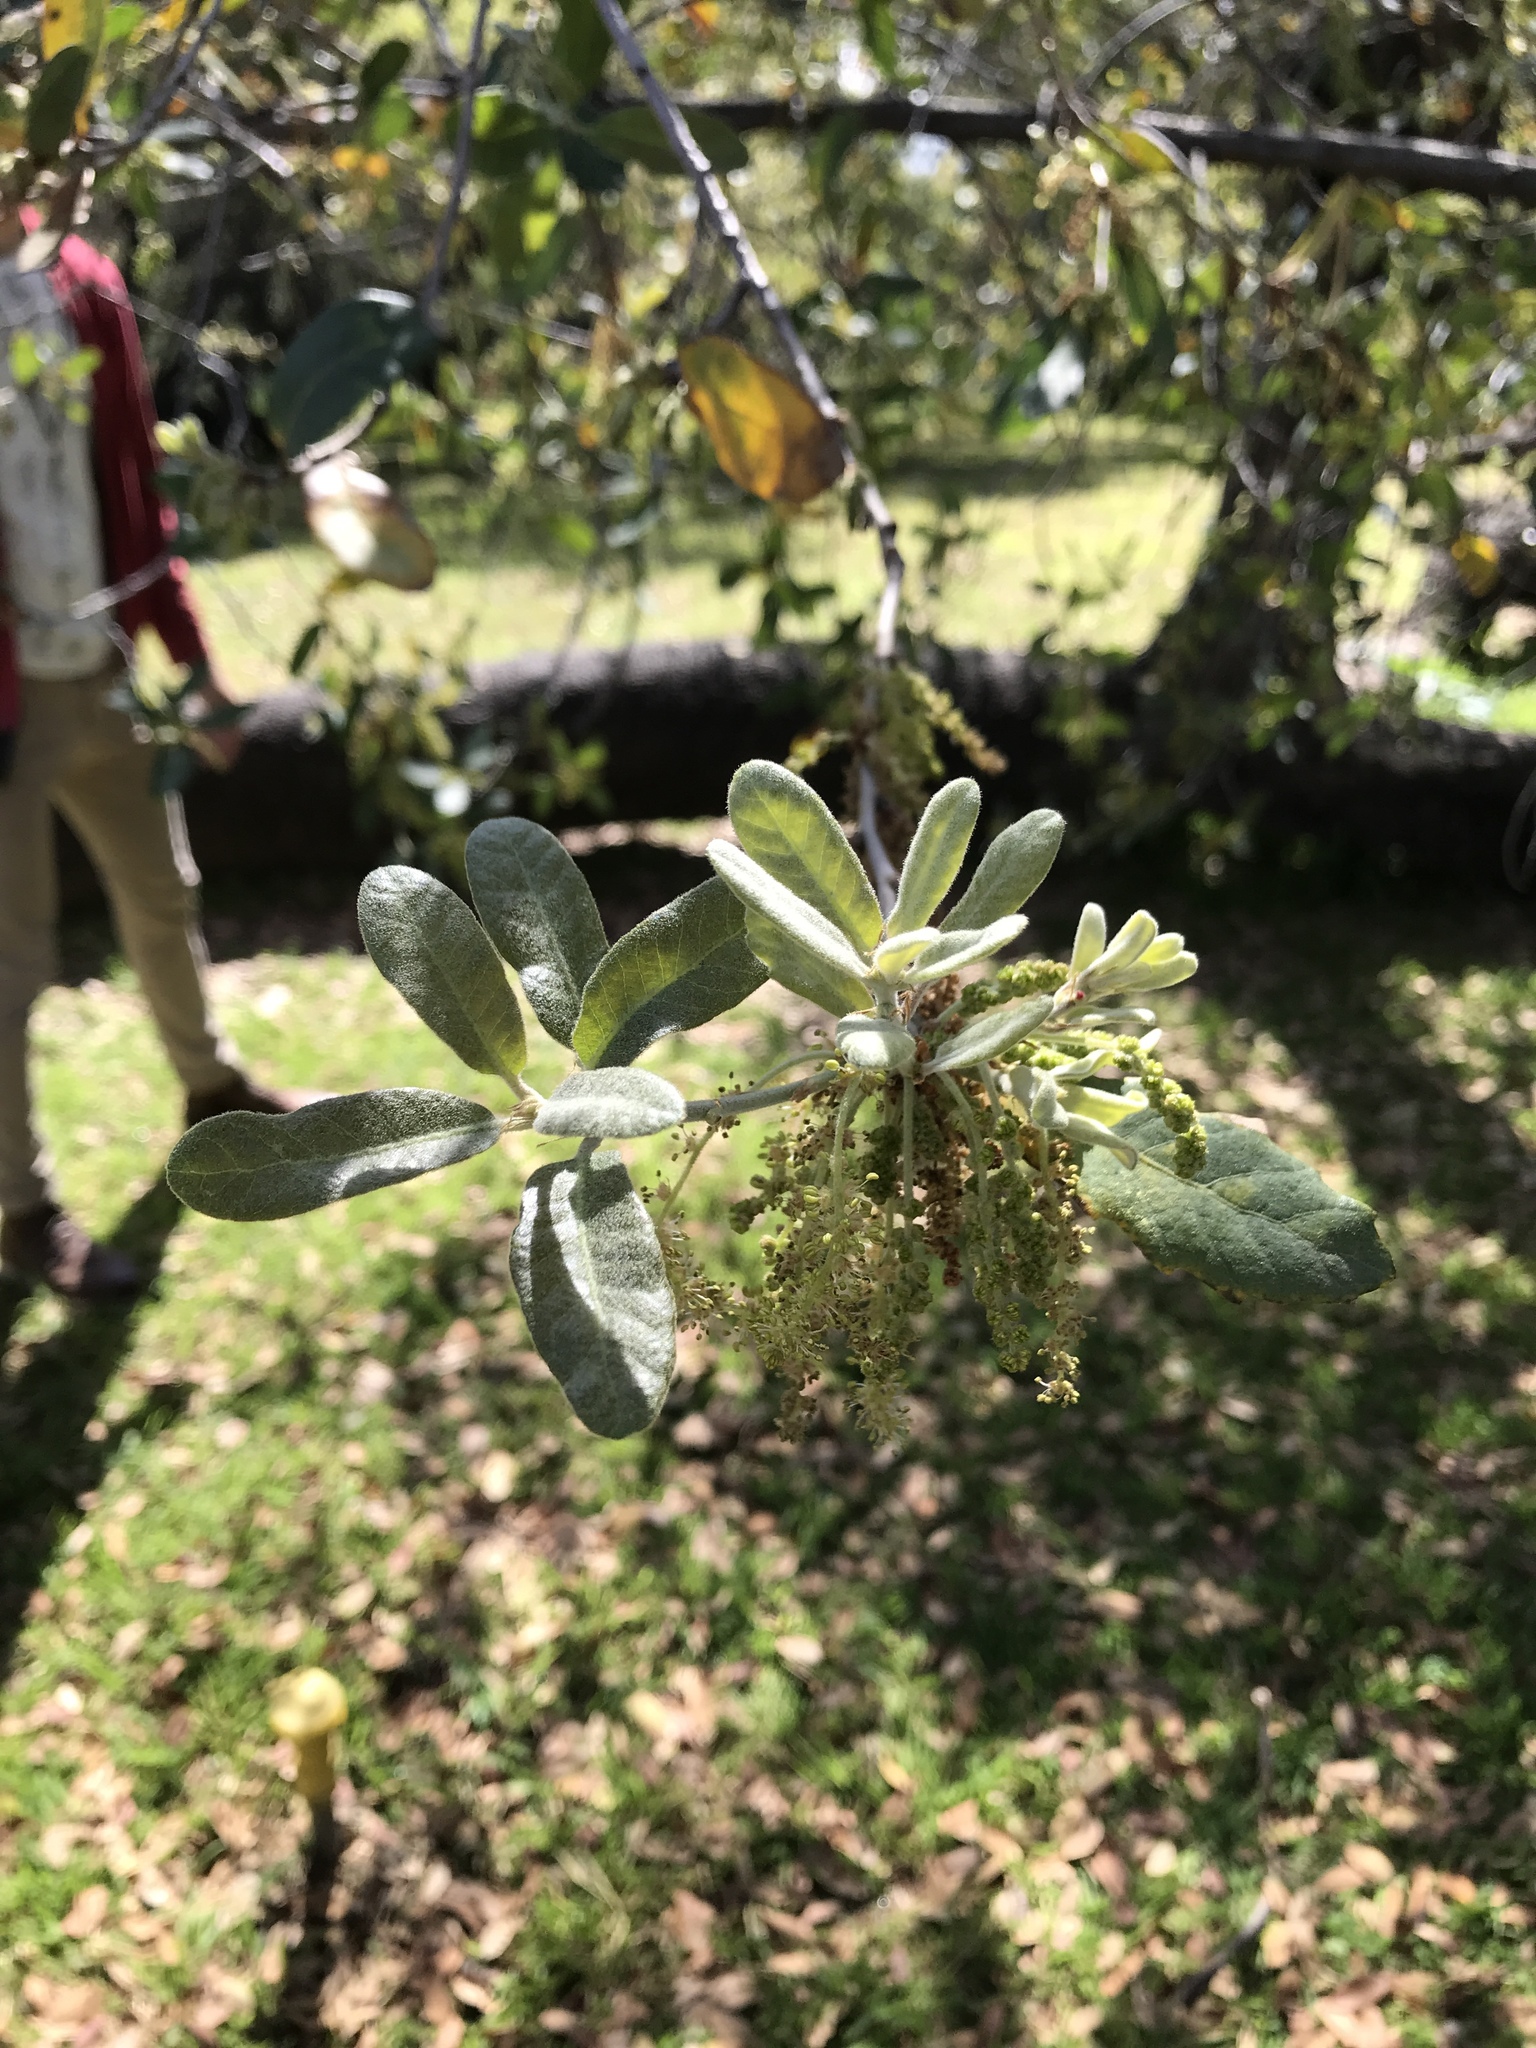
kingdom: Plantae
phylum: Tracheophyta
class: Magnoliopsida
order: Fagales
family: Fagaceae
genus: Quercus
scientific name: Quercus engelmannii
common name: Engelmann oak
